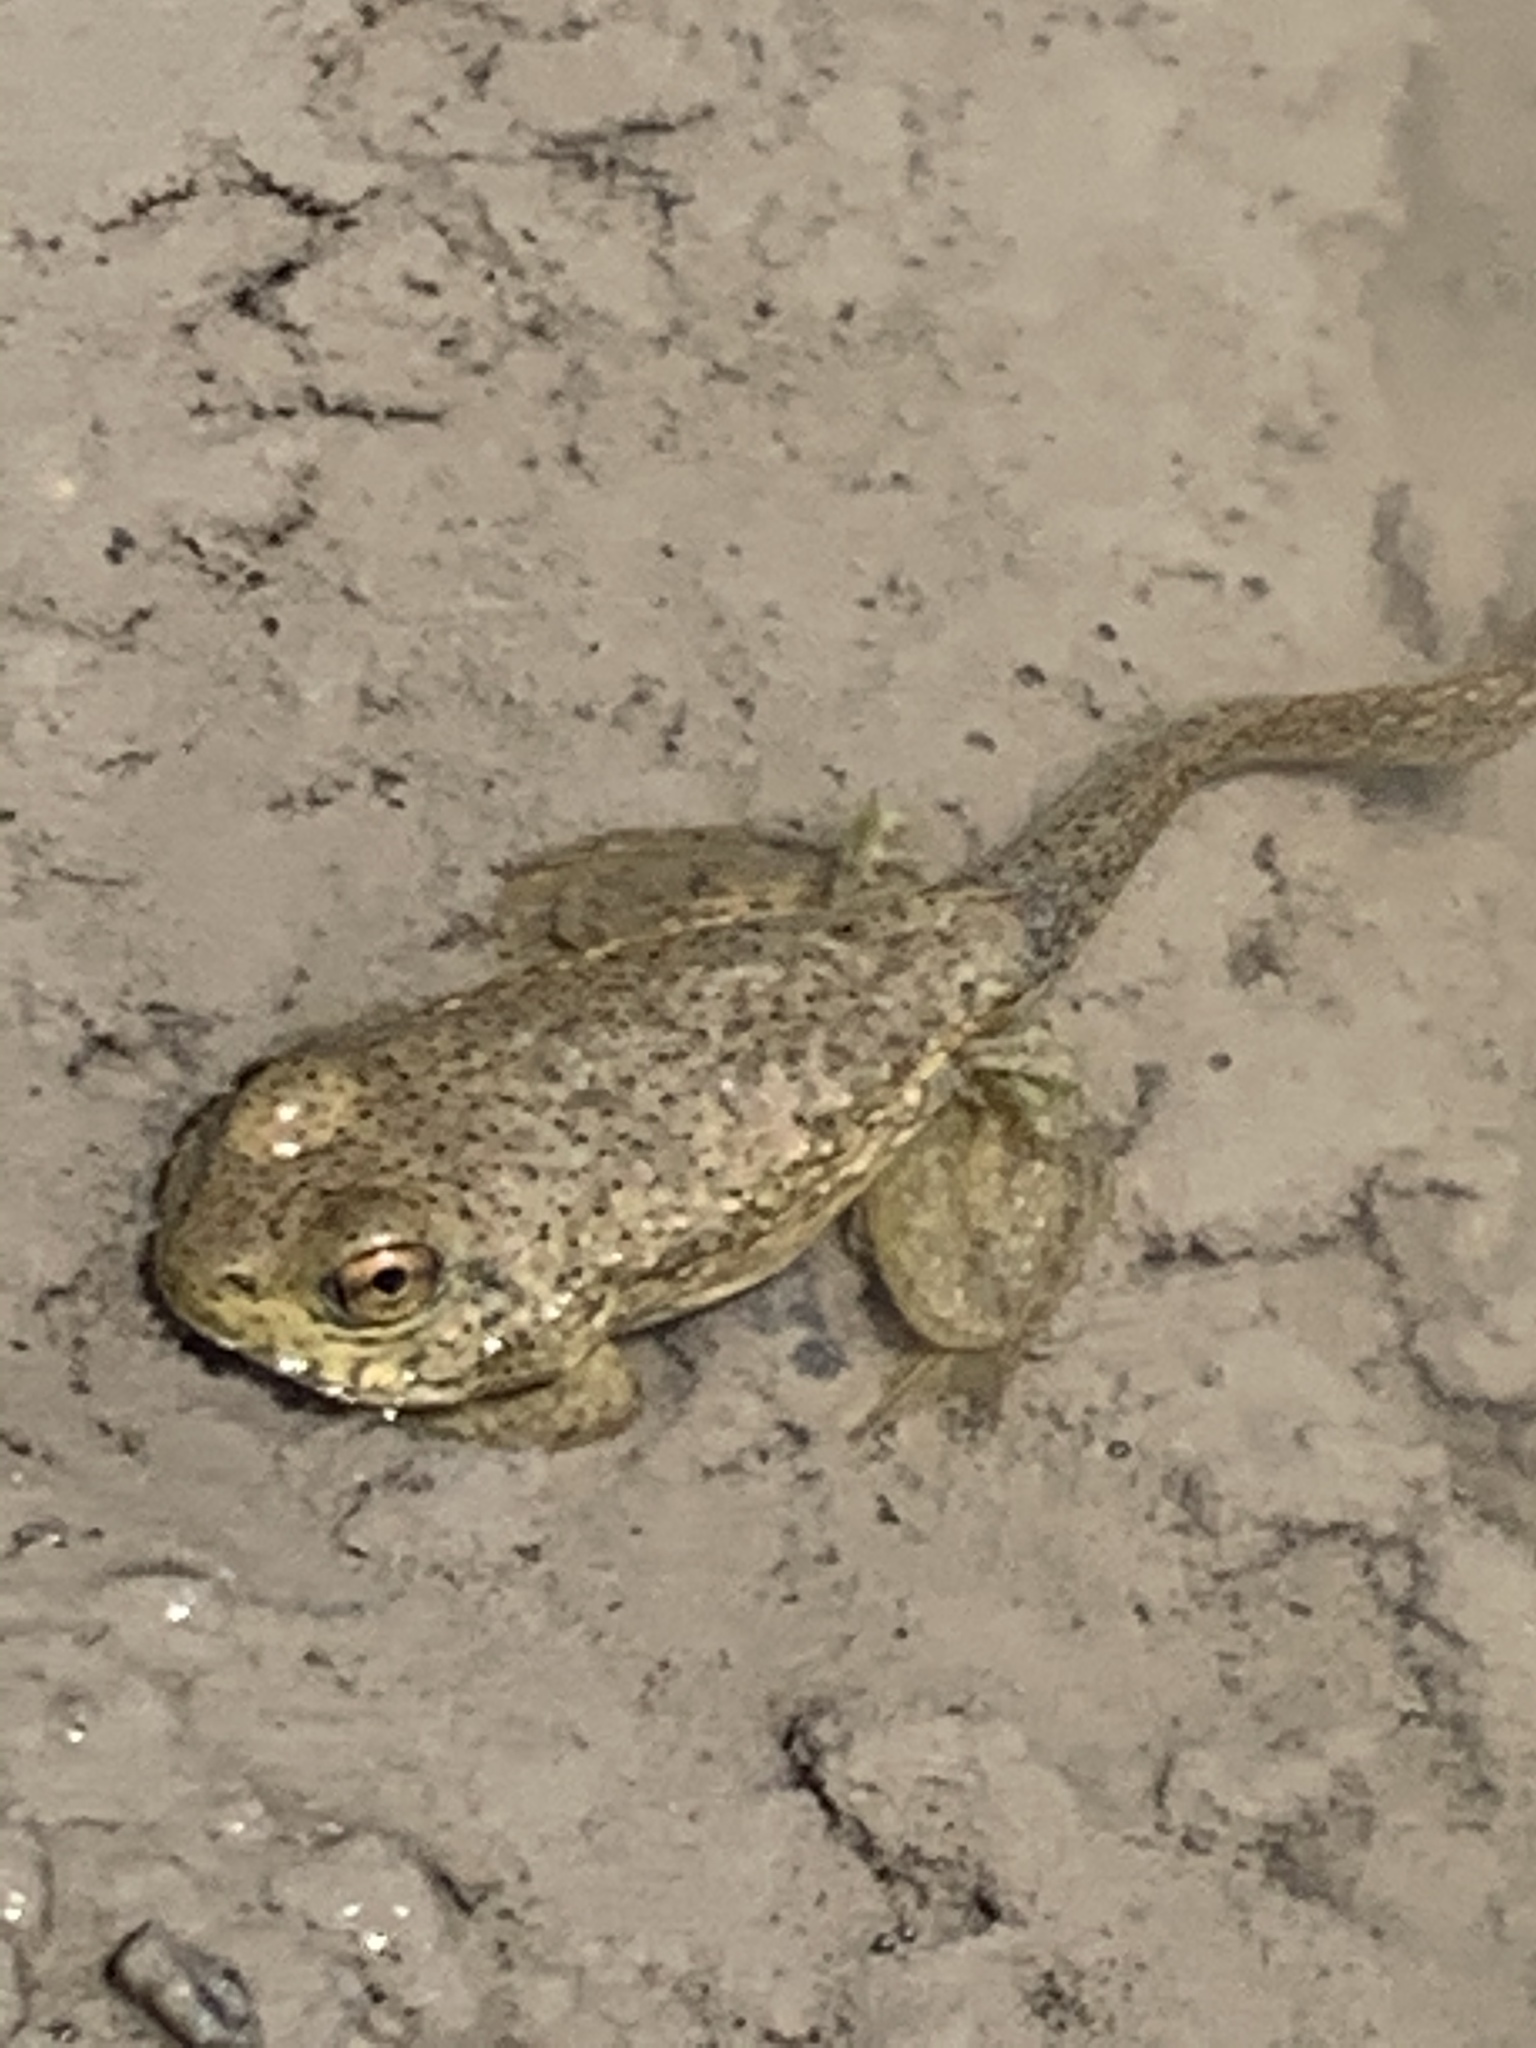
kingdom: Animalia
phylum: Chordata
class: Amphibia
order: Anura
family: Ranidae
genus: Lithobates
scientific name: Lithobates catesbeianus
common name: American bullfrog
